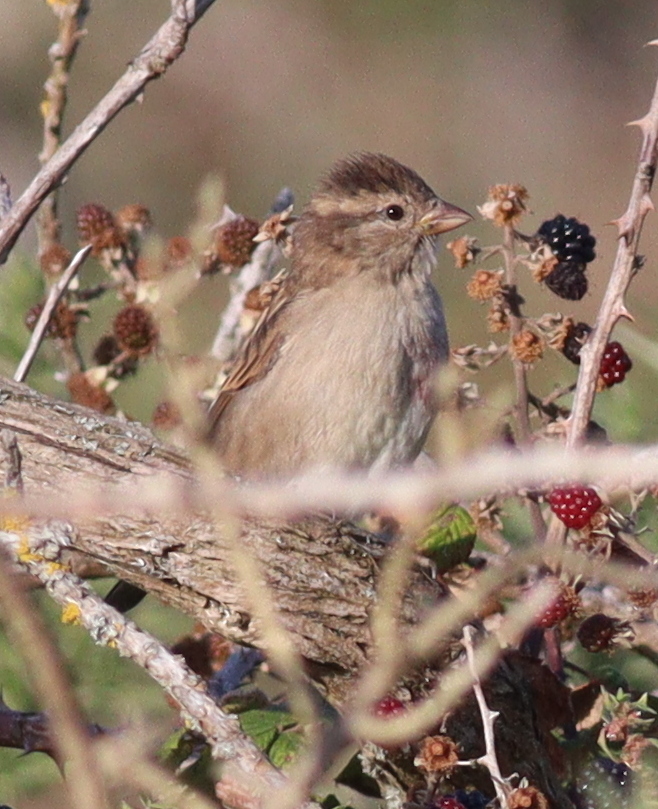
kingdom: Animalia
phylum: Chordata
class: Aves
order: Passeriformes
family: Passeridae
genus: Passer
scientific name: Passer domesticus
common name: House sparrow
